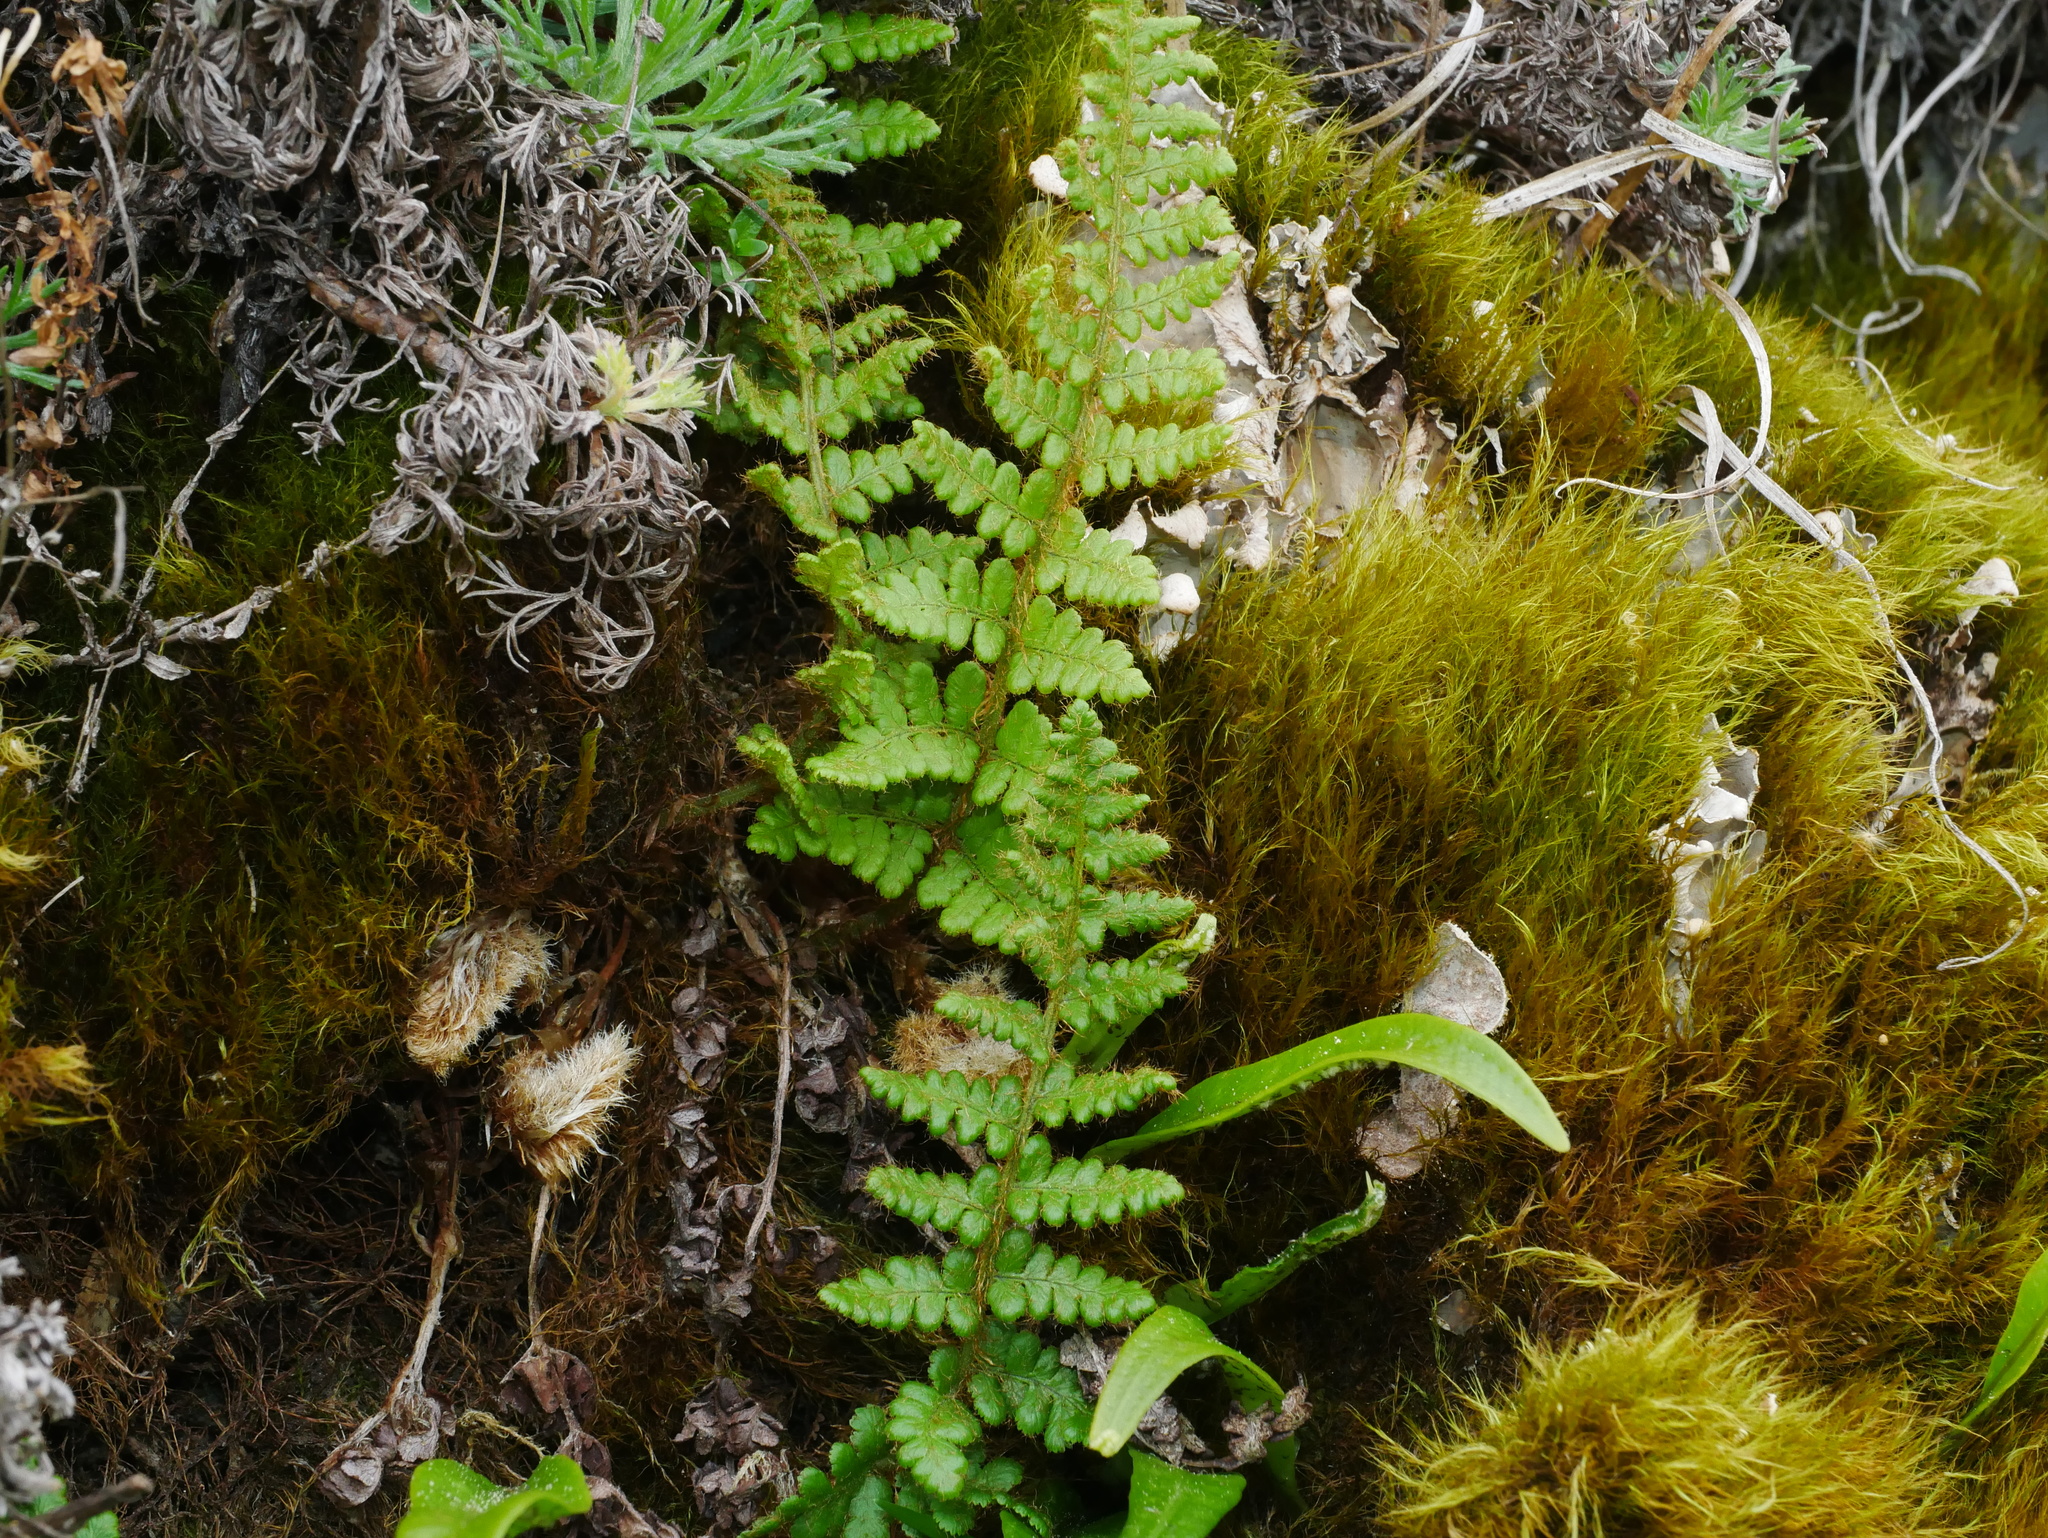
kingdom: Plantae
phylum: Tracheophyta
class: Polypodiopsida
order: Polypodiales
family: Dryopteridaceae
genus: Dryopteris
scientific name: Dryopteris komarovii
